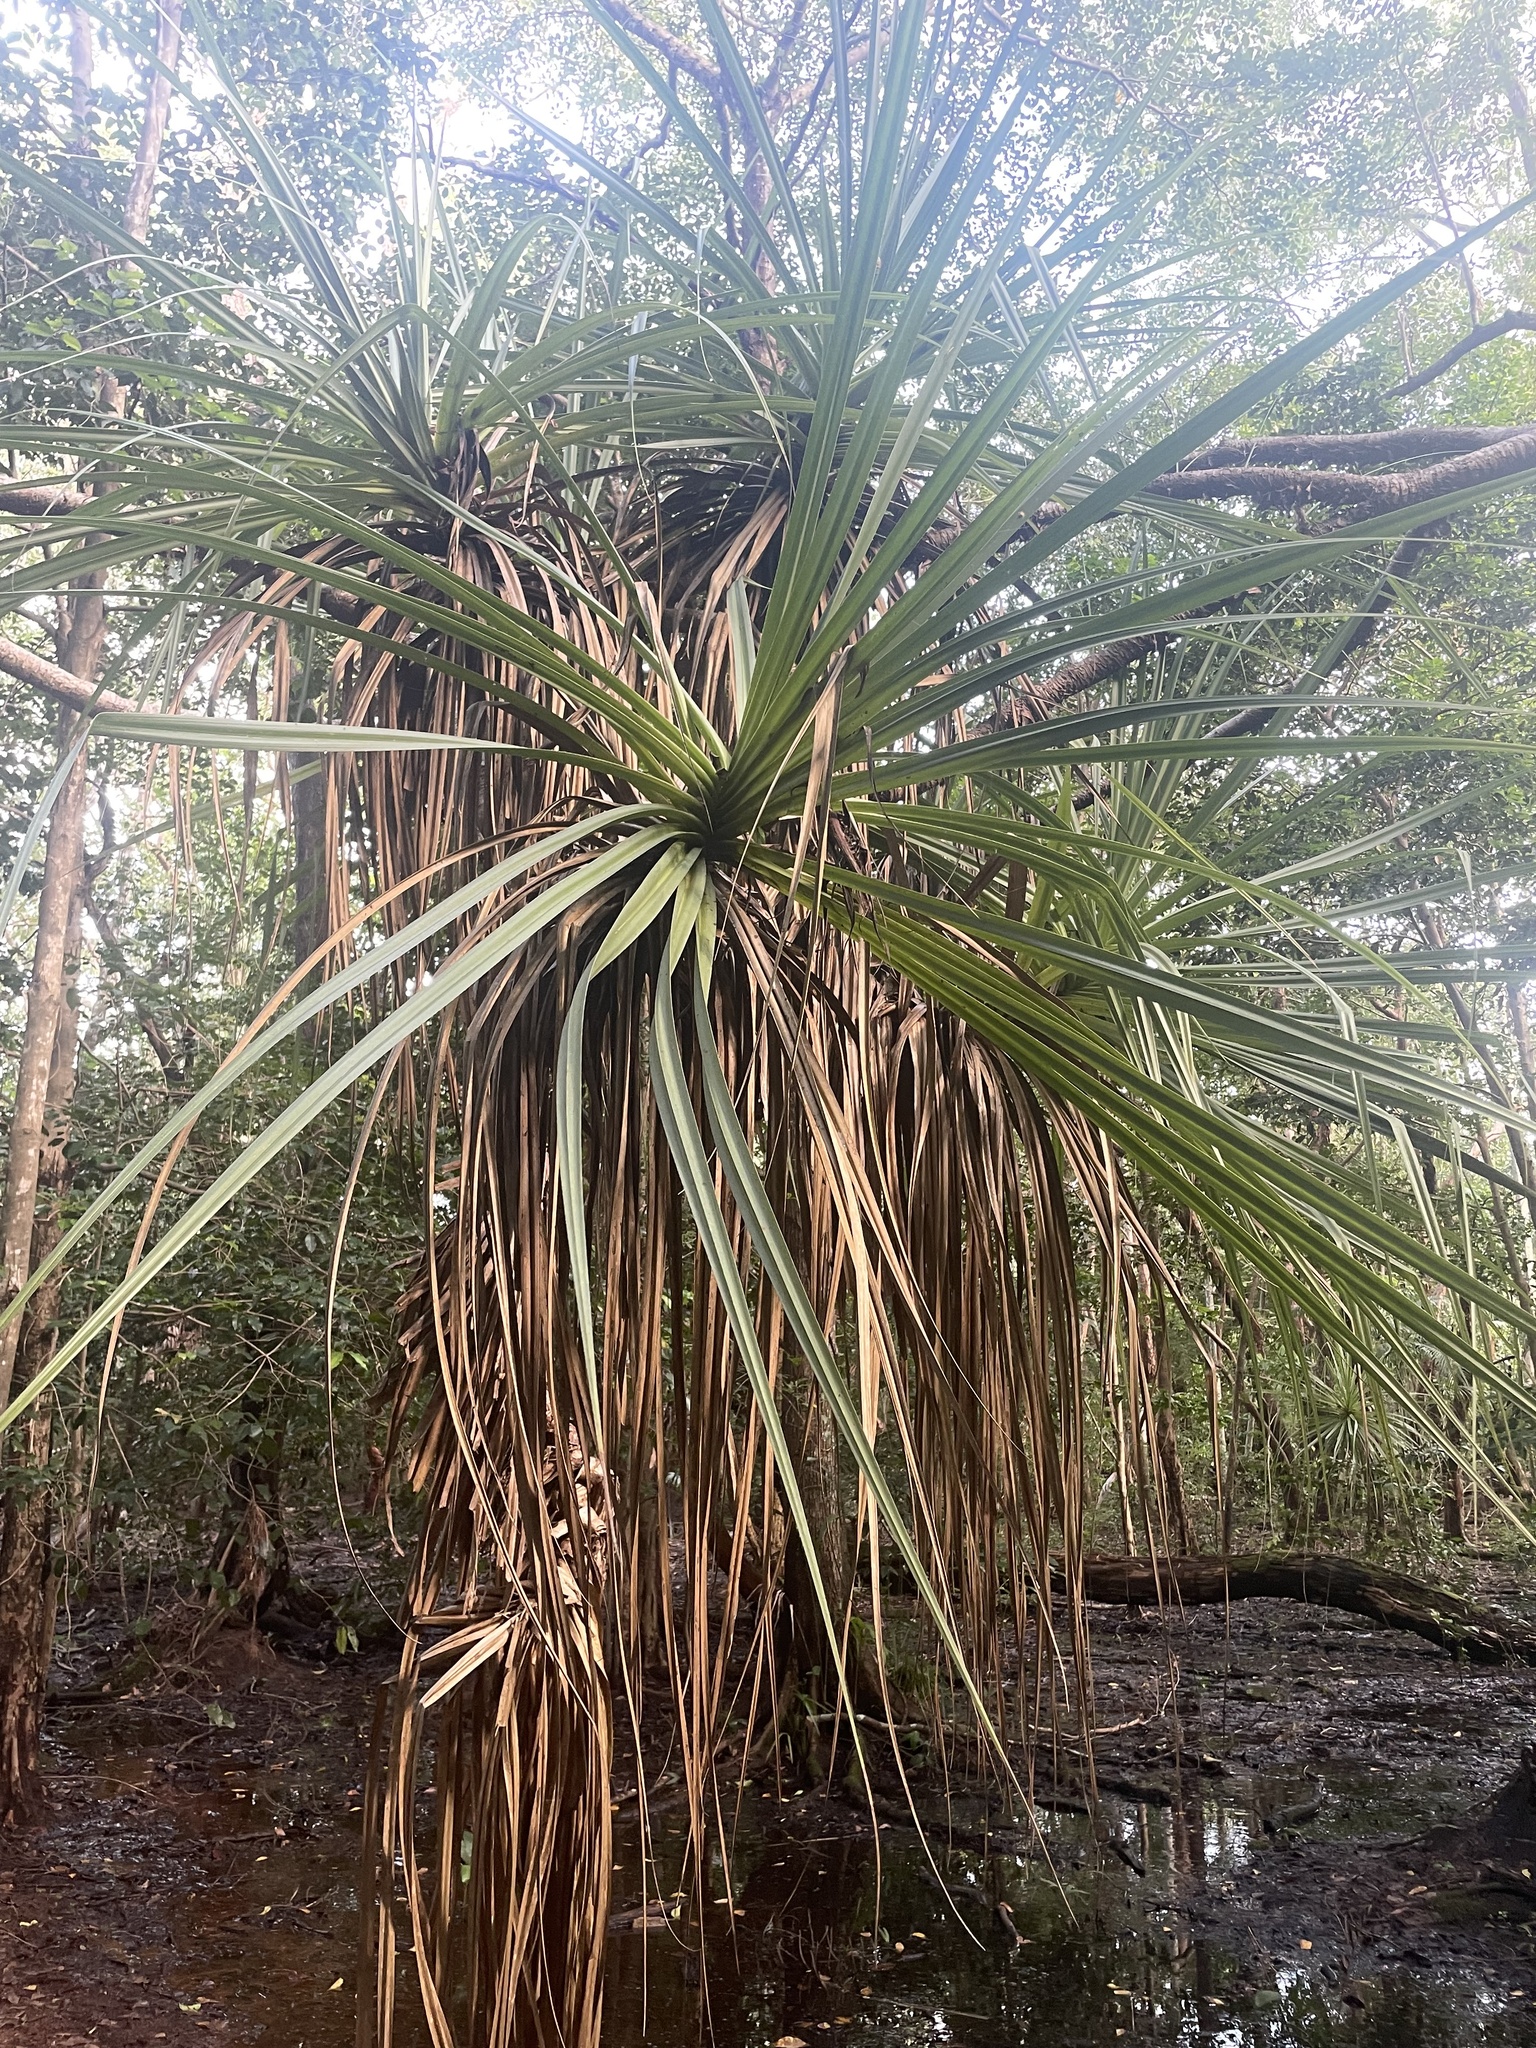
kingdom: Plantae
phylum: Tracheophyta
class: Liliopsida
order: Pandanales
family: Pandanaceae
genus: Pandanus
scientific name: Pandanus spiralis
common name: Screw-pine
